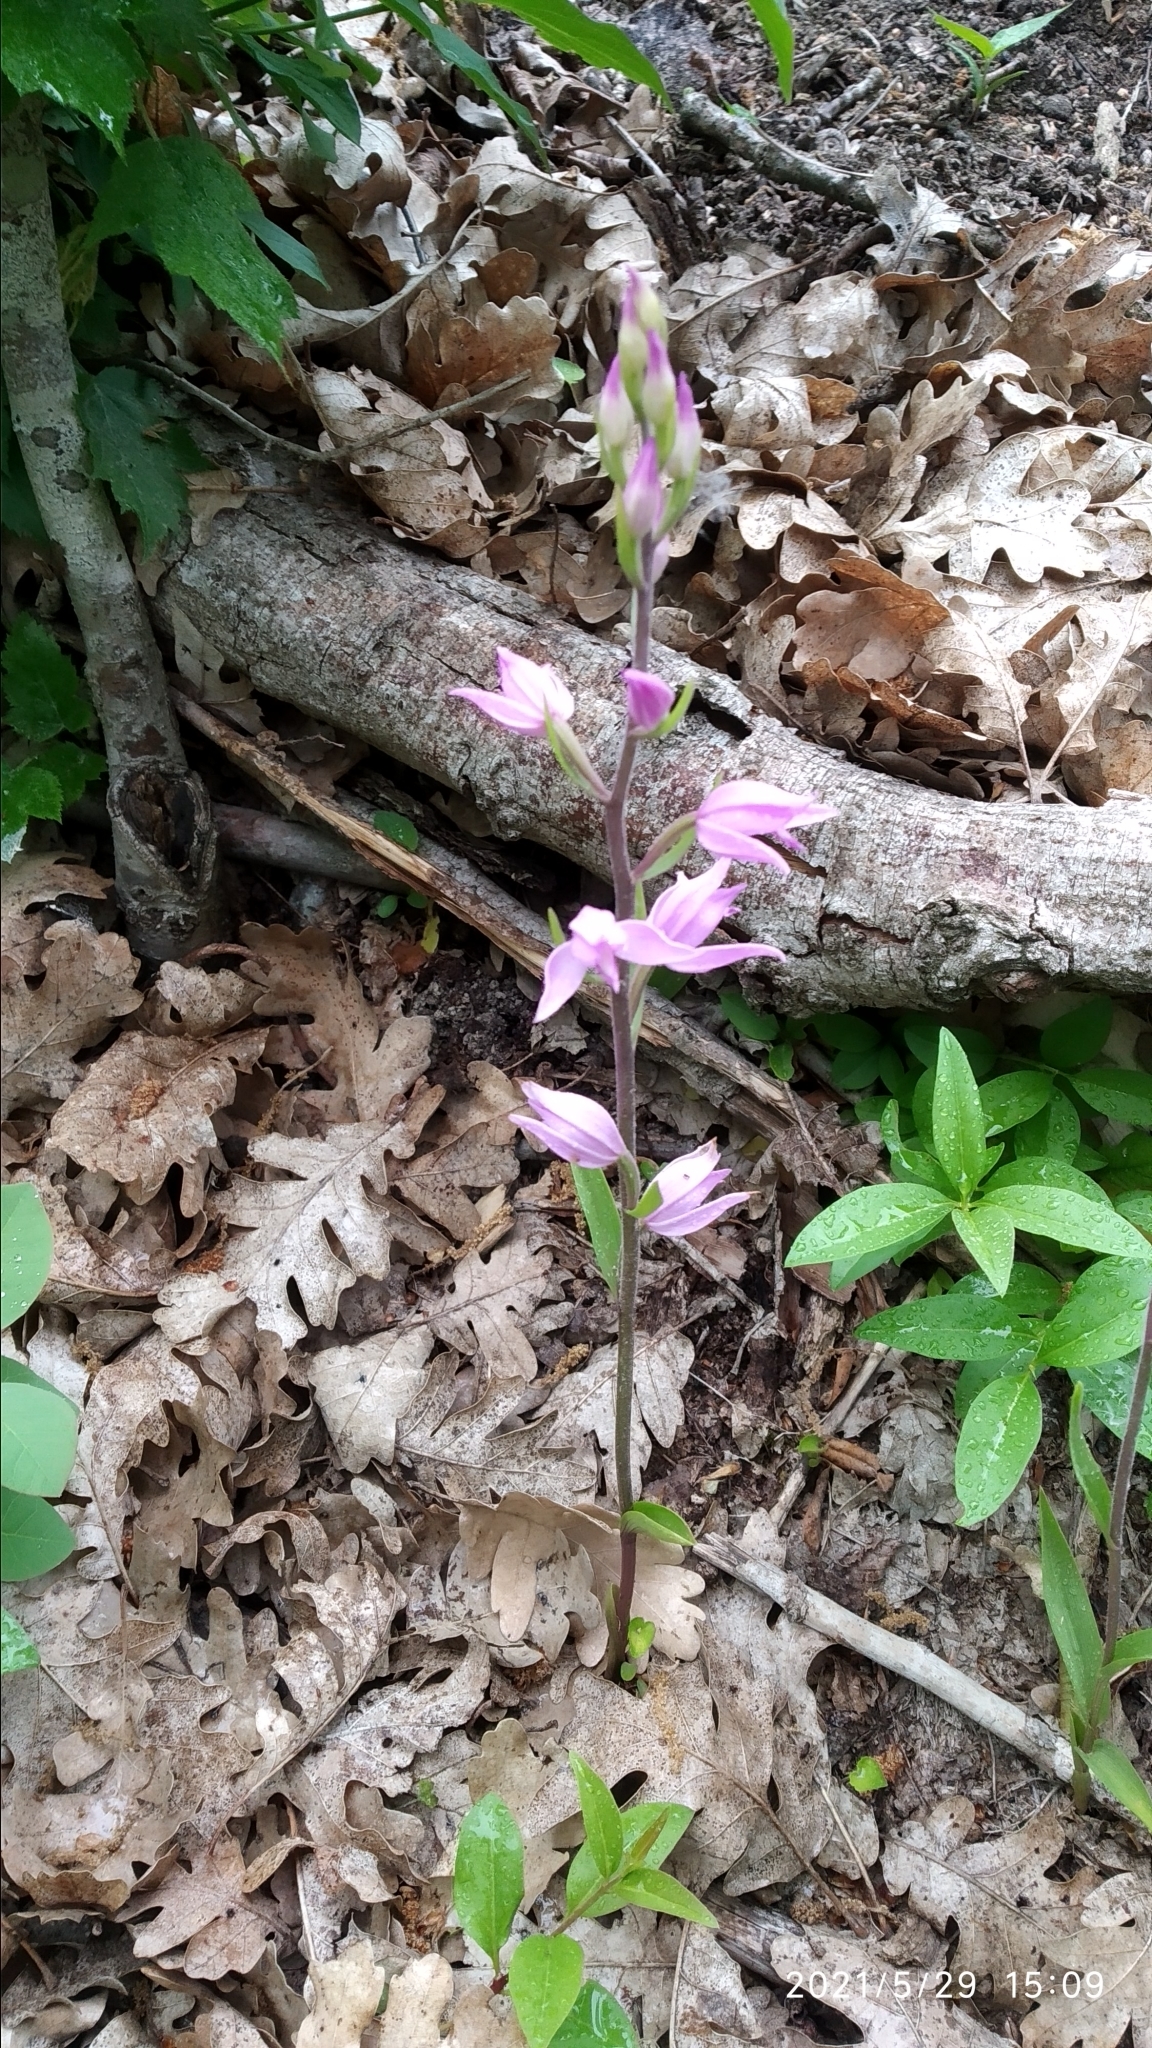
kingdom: Plantae
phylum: Tracheophyta
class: Liliopsida
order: Asparagales
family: Orchidaceae
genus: Cephalanthera
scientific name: Cephalanthera rubra
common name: Red helleborine
